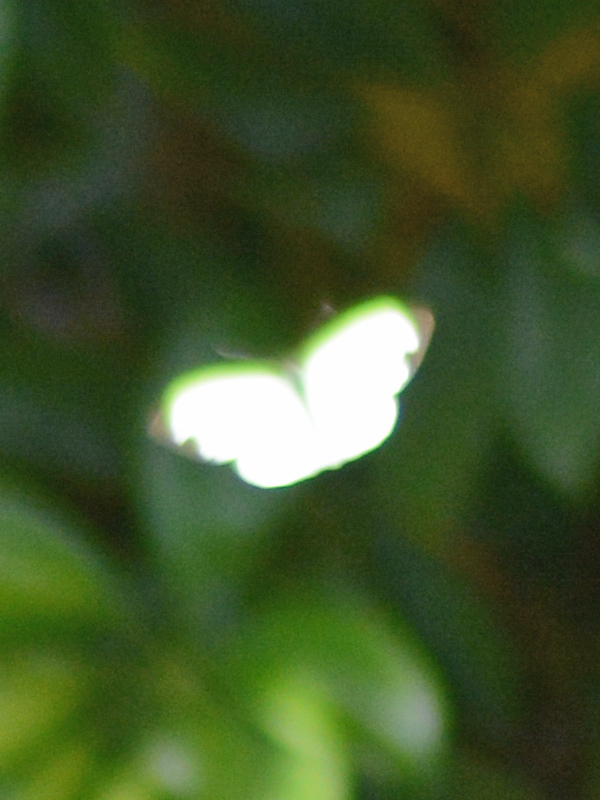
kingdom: Animalia
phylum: Arthropoda
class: Insecta
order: Lepidoptera
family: Pieridae
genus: Leptophobia
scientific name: Leptophobia aripa
